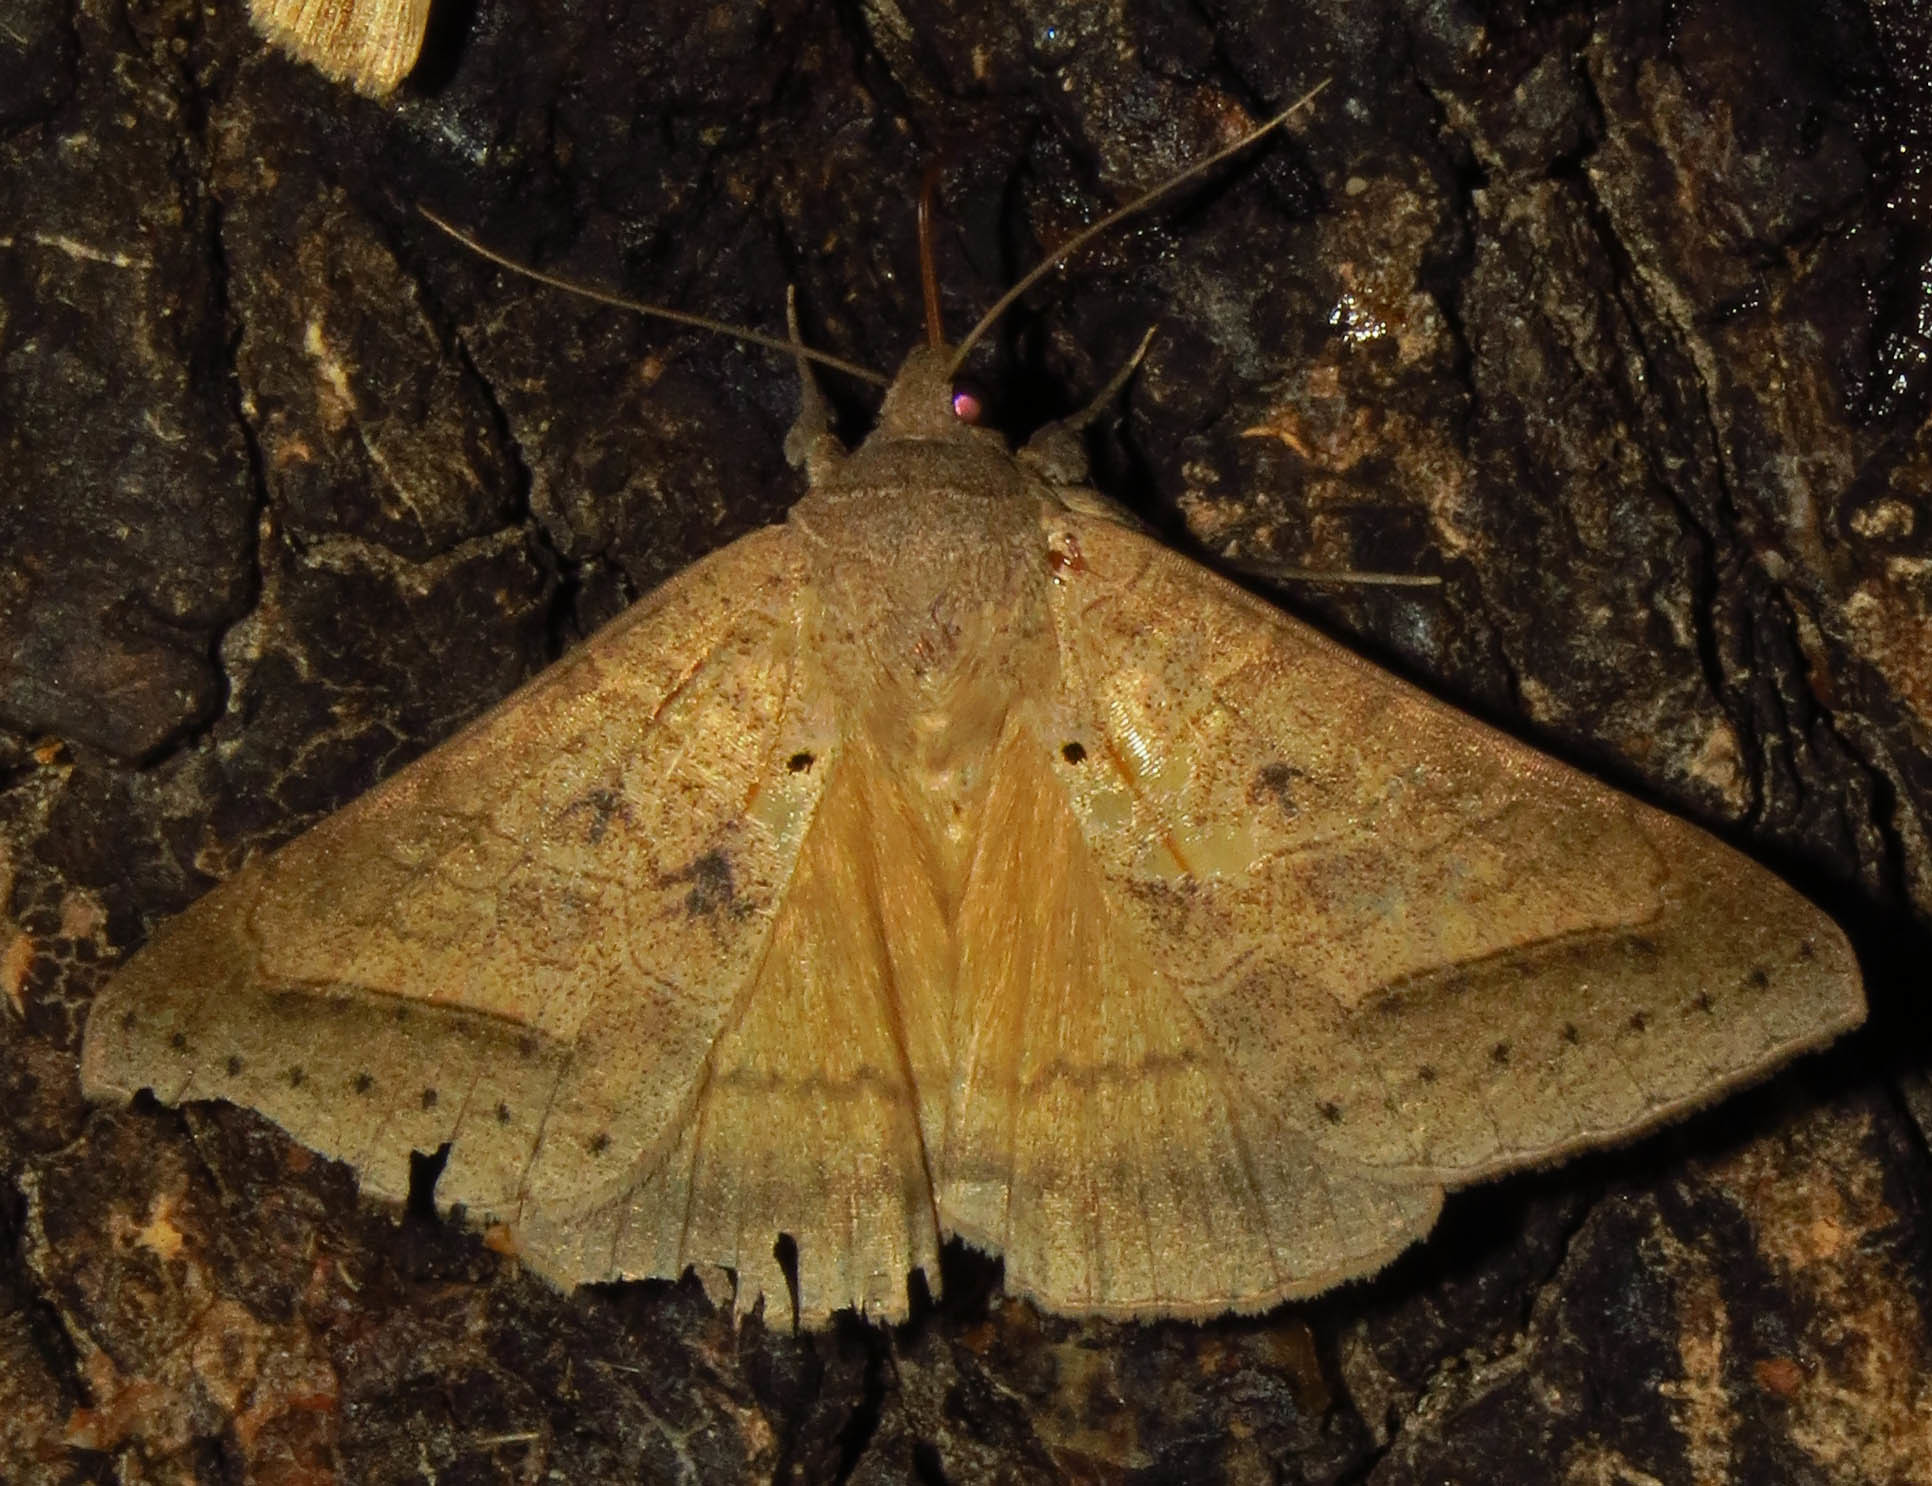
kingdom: Animalia
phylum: Arthropoda
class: Insecta
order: Lepidoptera
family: Erebidae
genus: Mocis
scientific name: Mocis marcida
